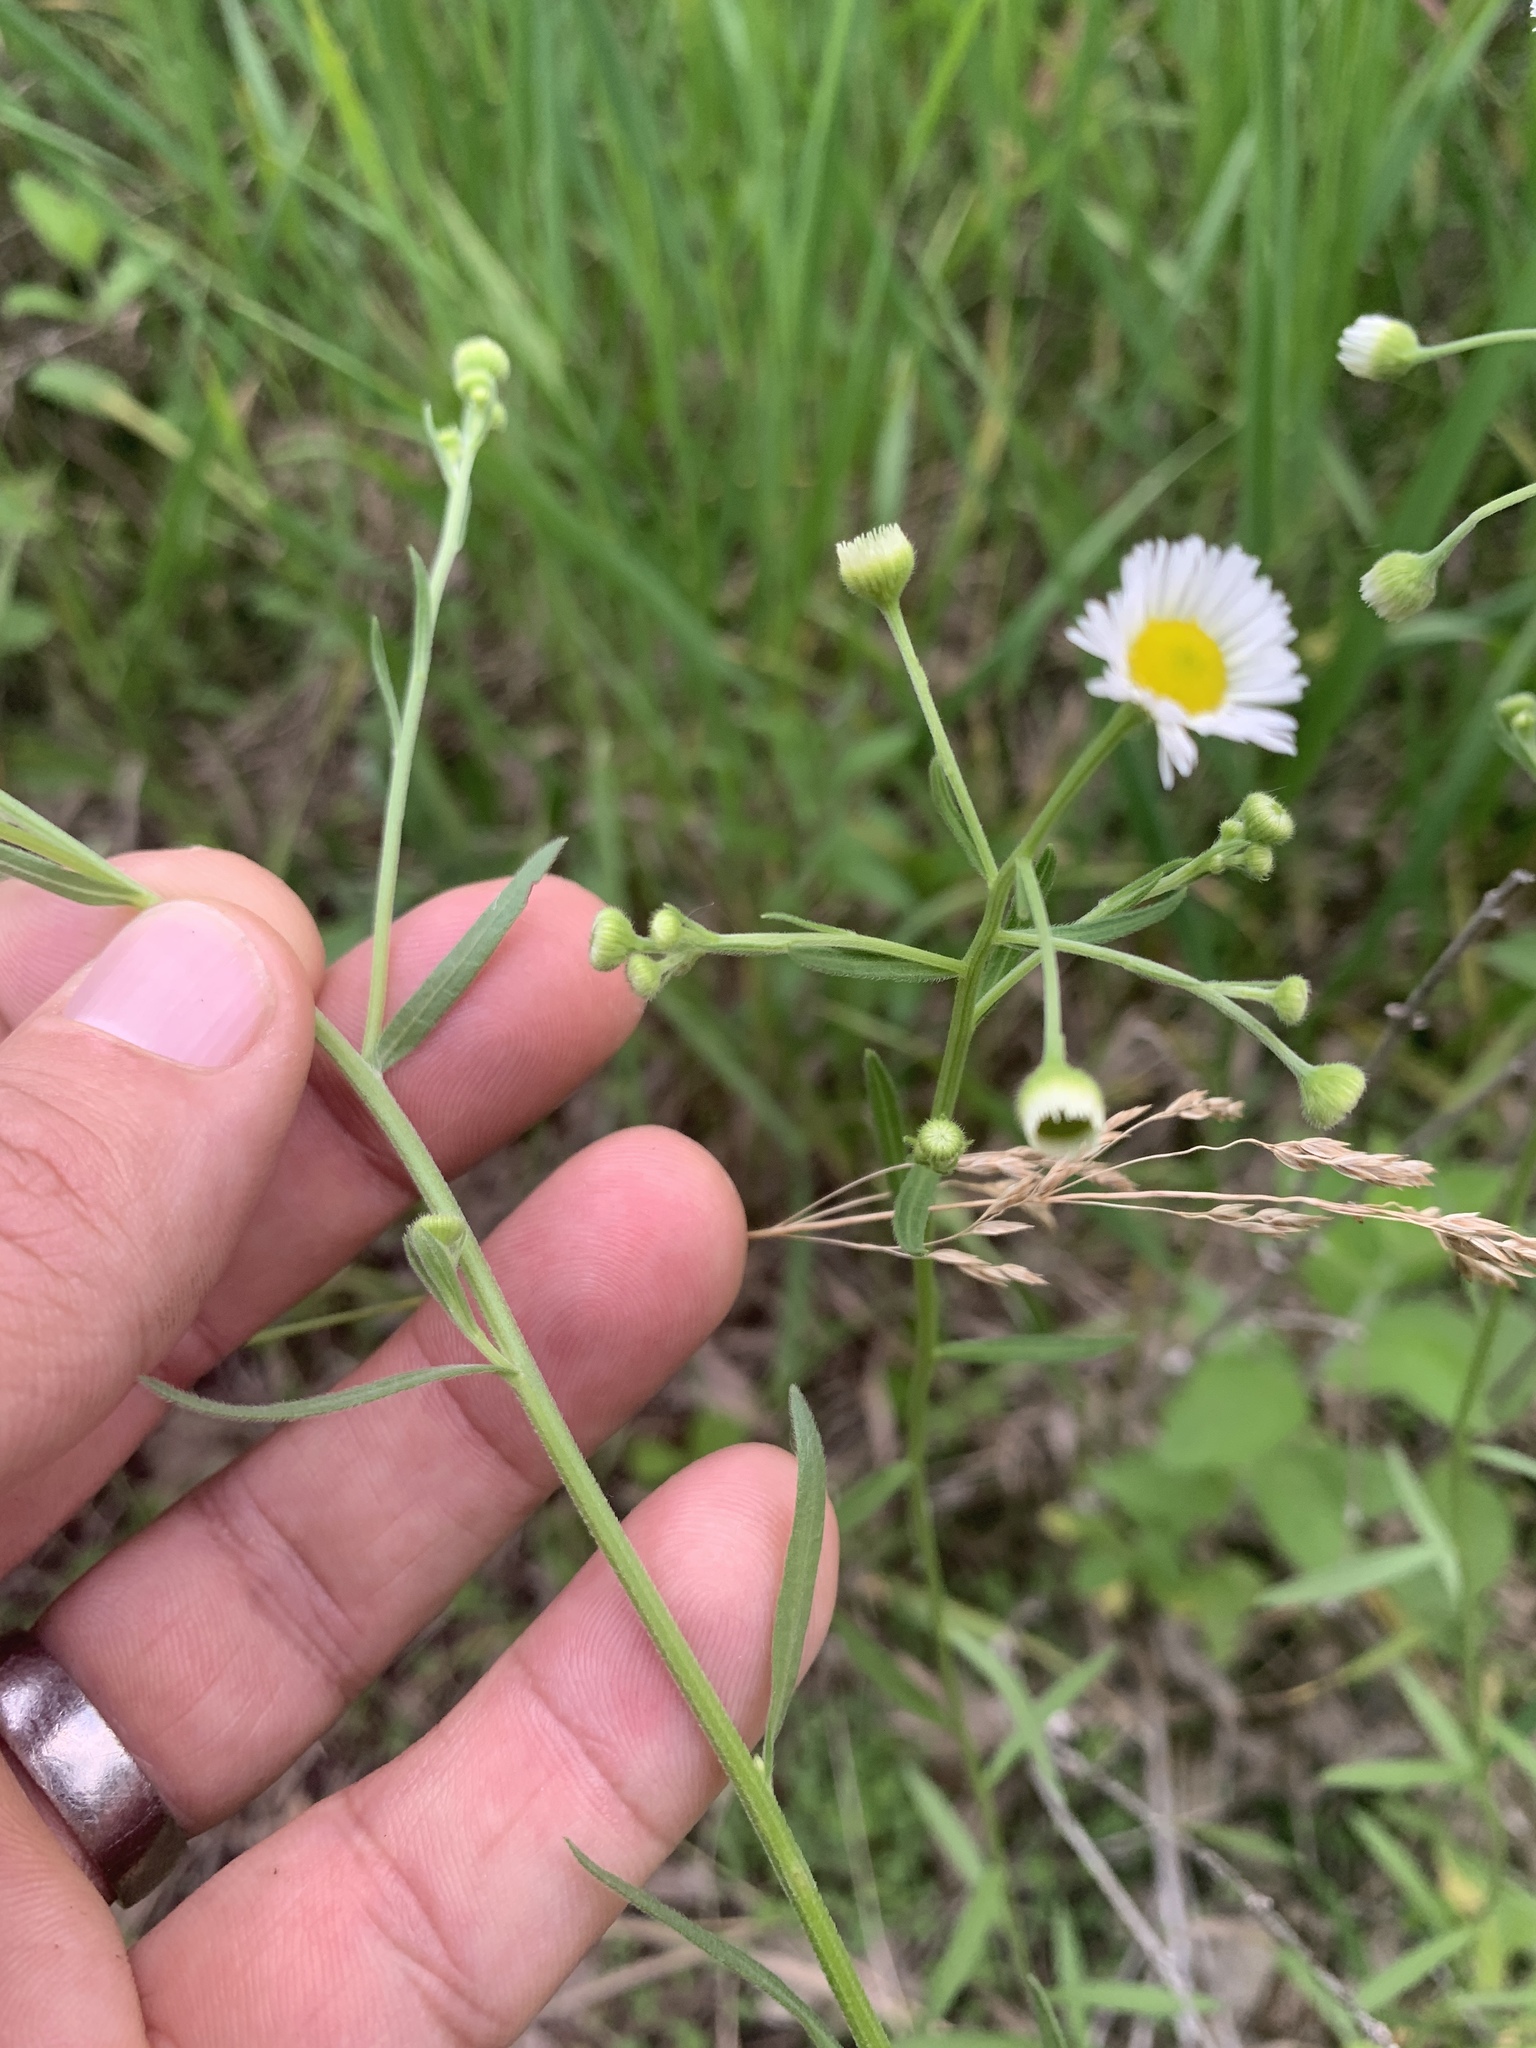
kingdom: Plantae
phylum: Tracheophyta
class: Magnoliopsida
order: Asterales
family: Asteraceae
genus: Erigeron
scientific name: Erigeron strigosus
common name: Common eastern fleabane
